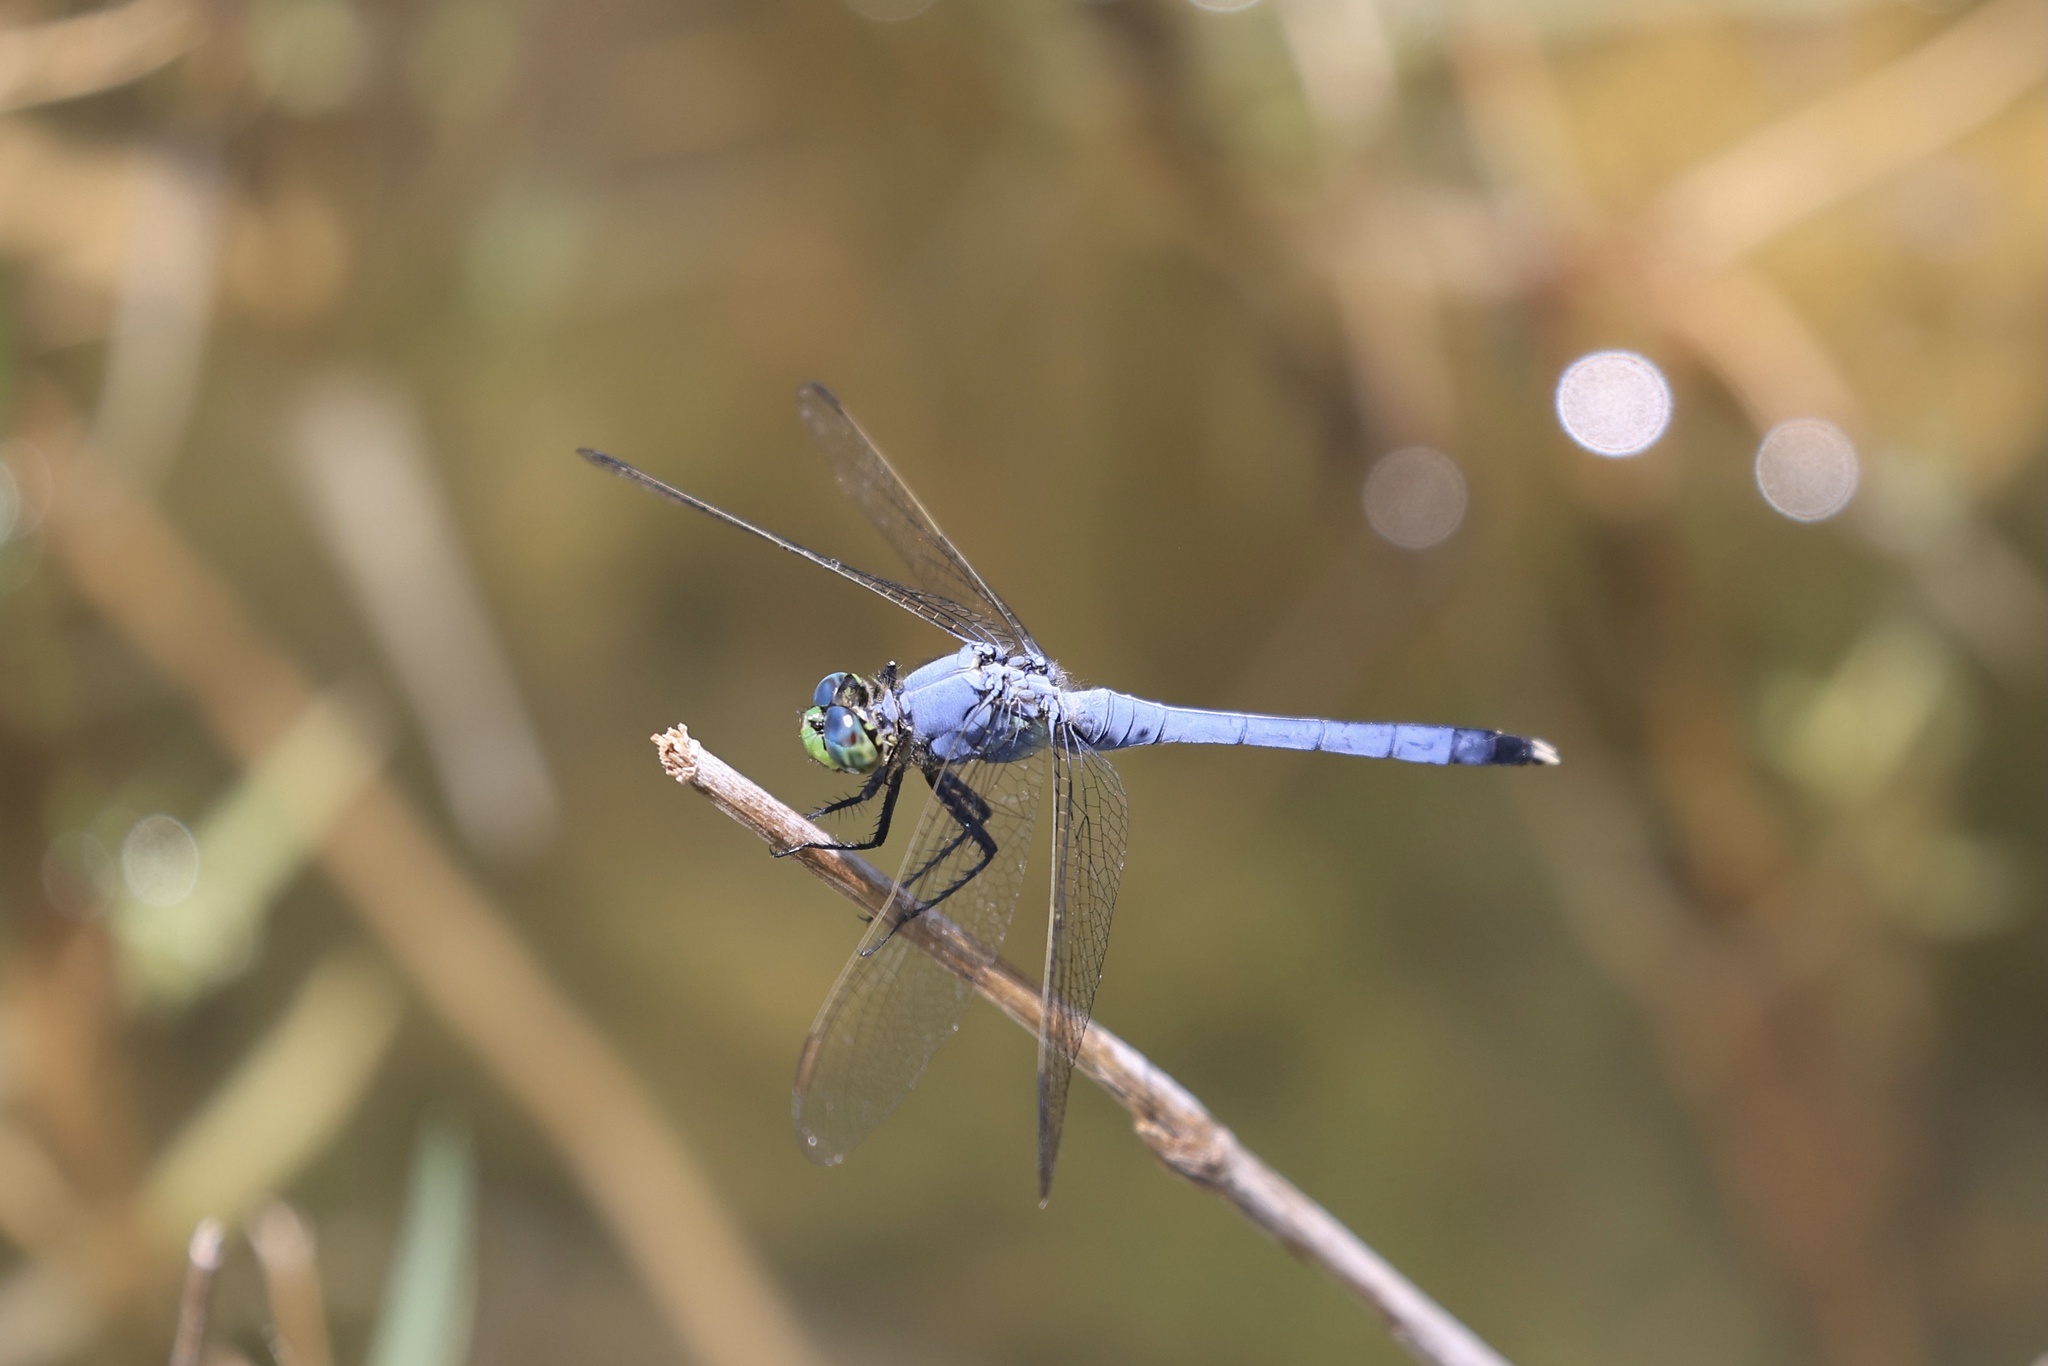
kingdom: Animalia
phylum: Arthropoda
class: Insecta
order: Odonata
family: Libellulidae
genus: Erythemis
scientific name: Erythemis simplicicollis
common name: Eastern pondhawk
